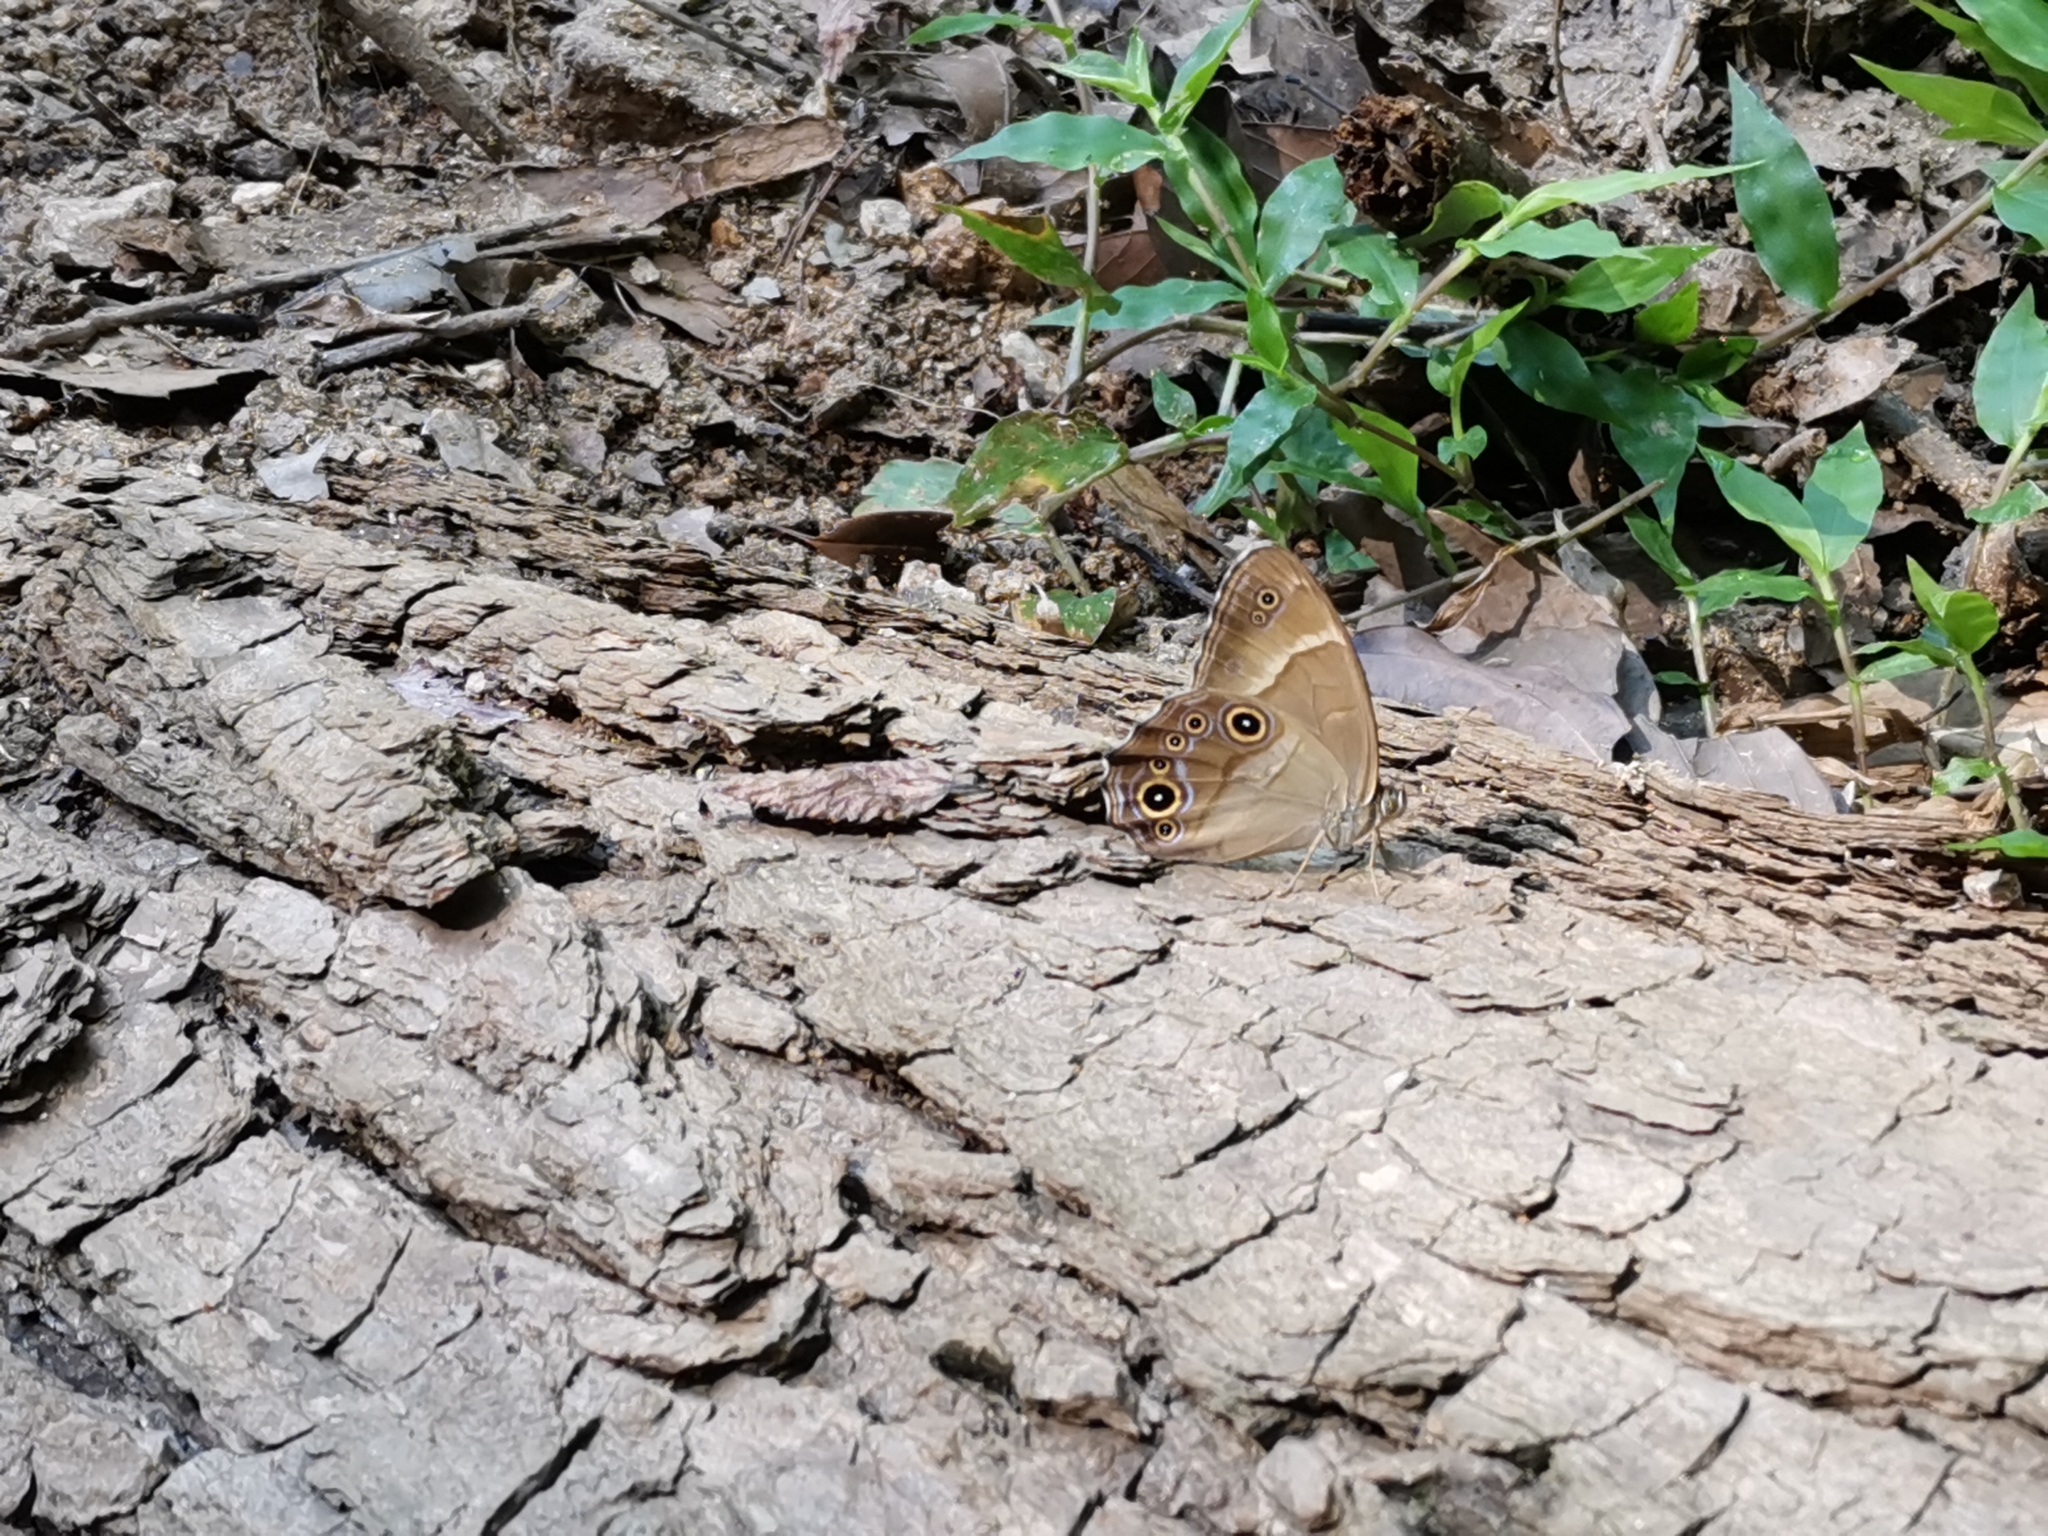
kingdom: Animalia
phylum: Arthropoda
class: Insecta
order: Lepidoptera
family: Nymphalidae
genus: Lethe
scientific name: Lethe sicelis
